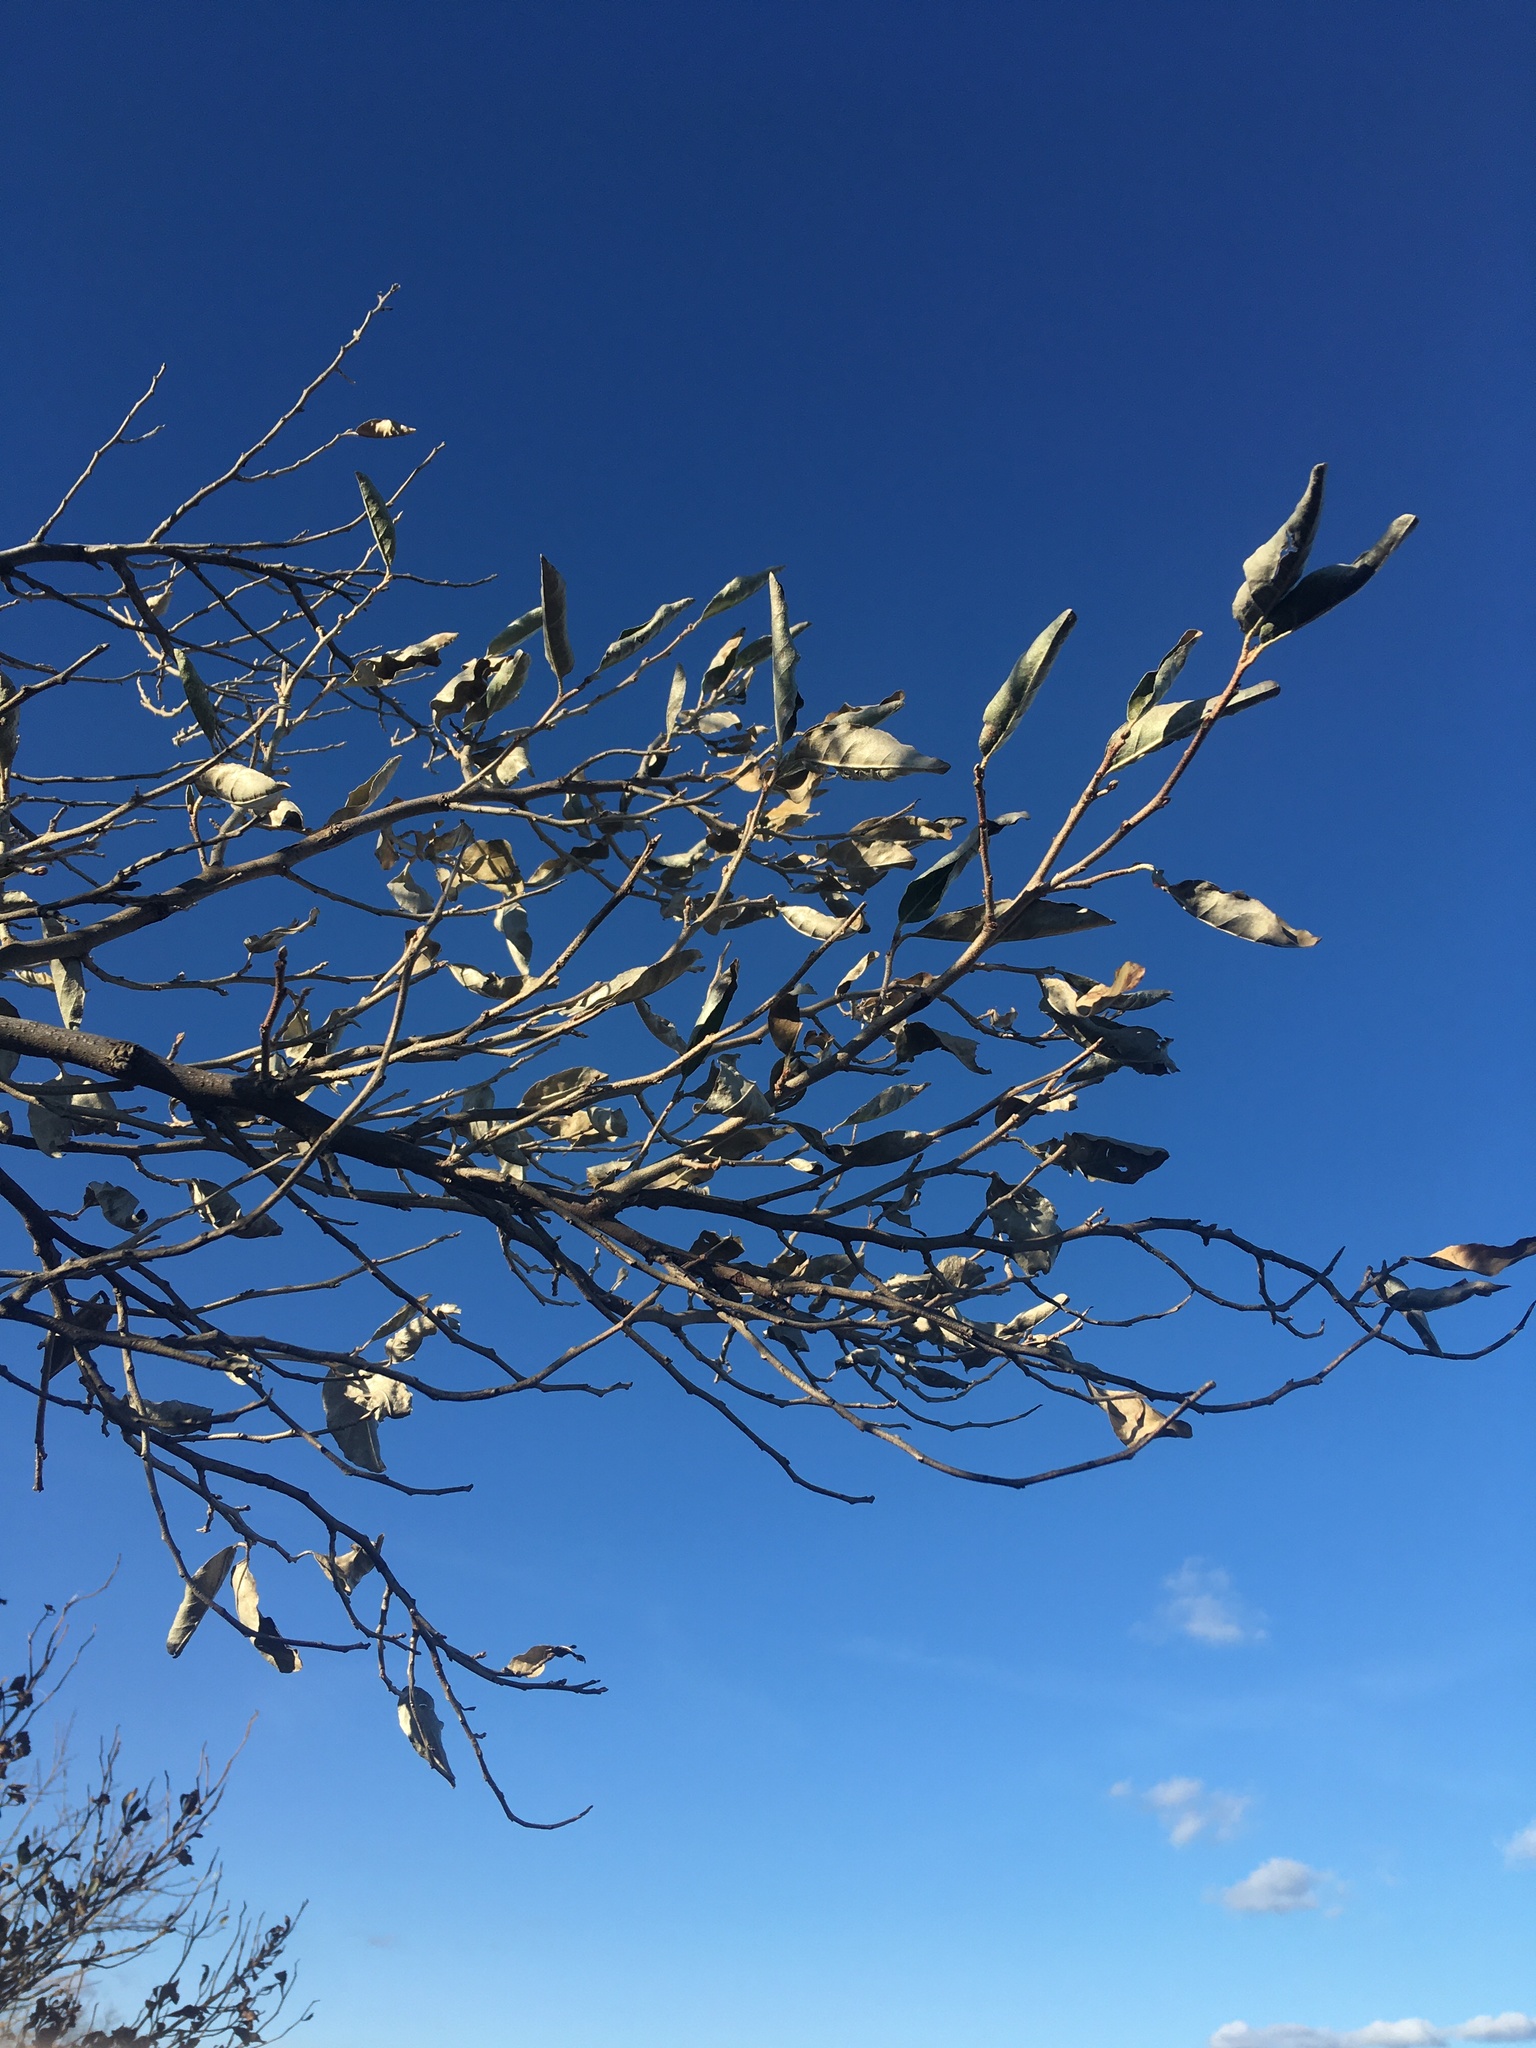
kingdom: Plantae
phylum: Tracheophyta
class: Magnoliopsida
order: Rosales
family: Elaeagnaceae
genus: Elaeagnus
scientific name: Elaeagnus umbellata
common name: Autumn olive
